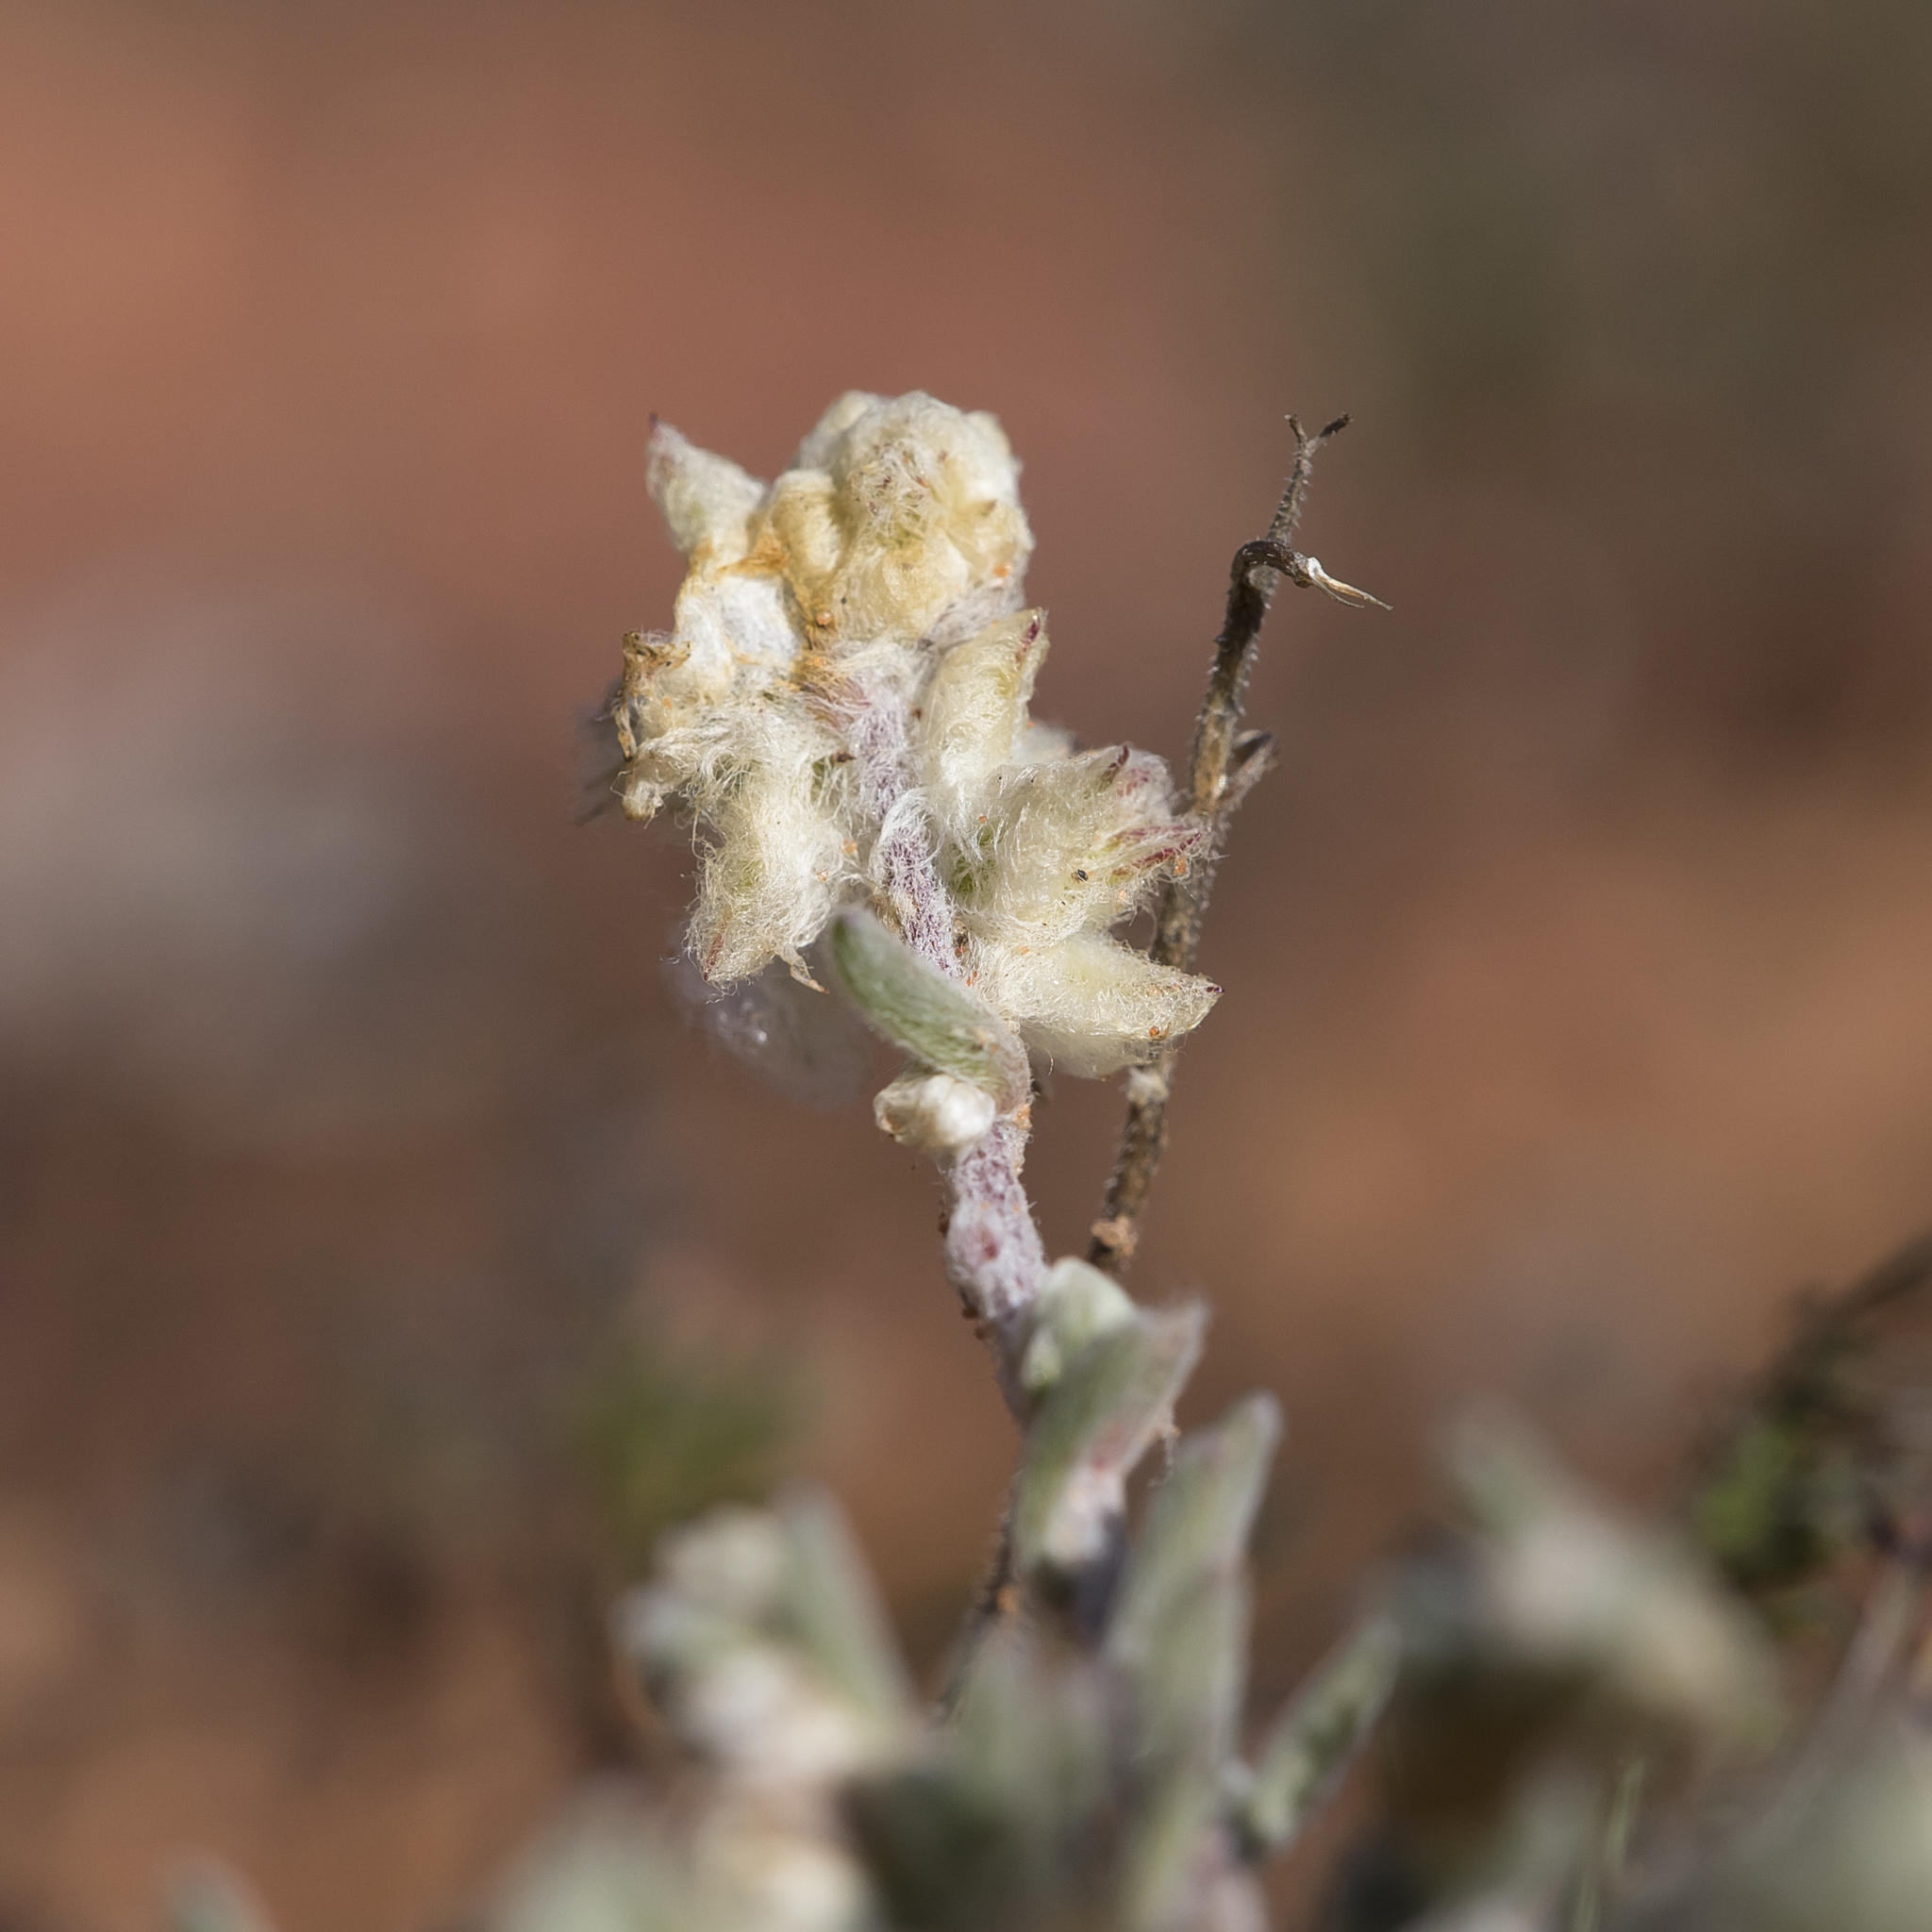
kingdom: Plantae
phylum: Tracheophyta
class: Magnoliopsida
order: Caryophyllales
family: Amaranthaceae
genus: Maireana
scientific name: Maireana sclerolaenoides
